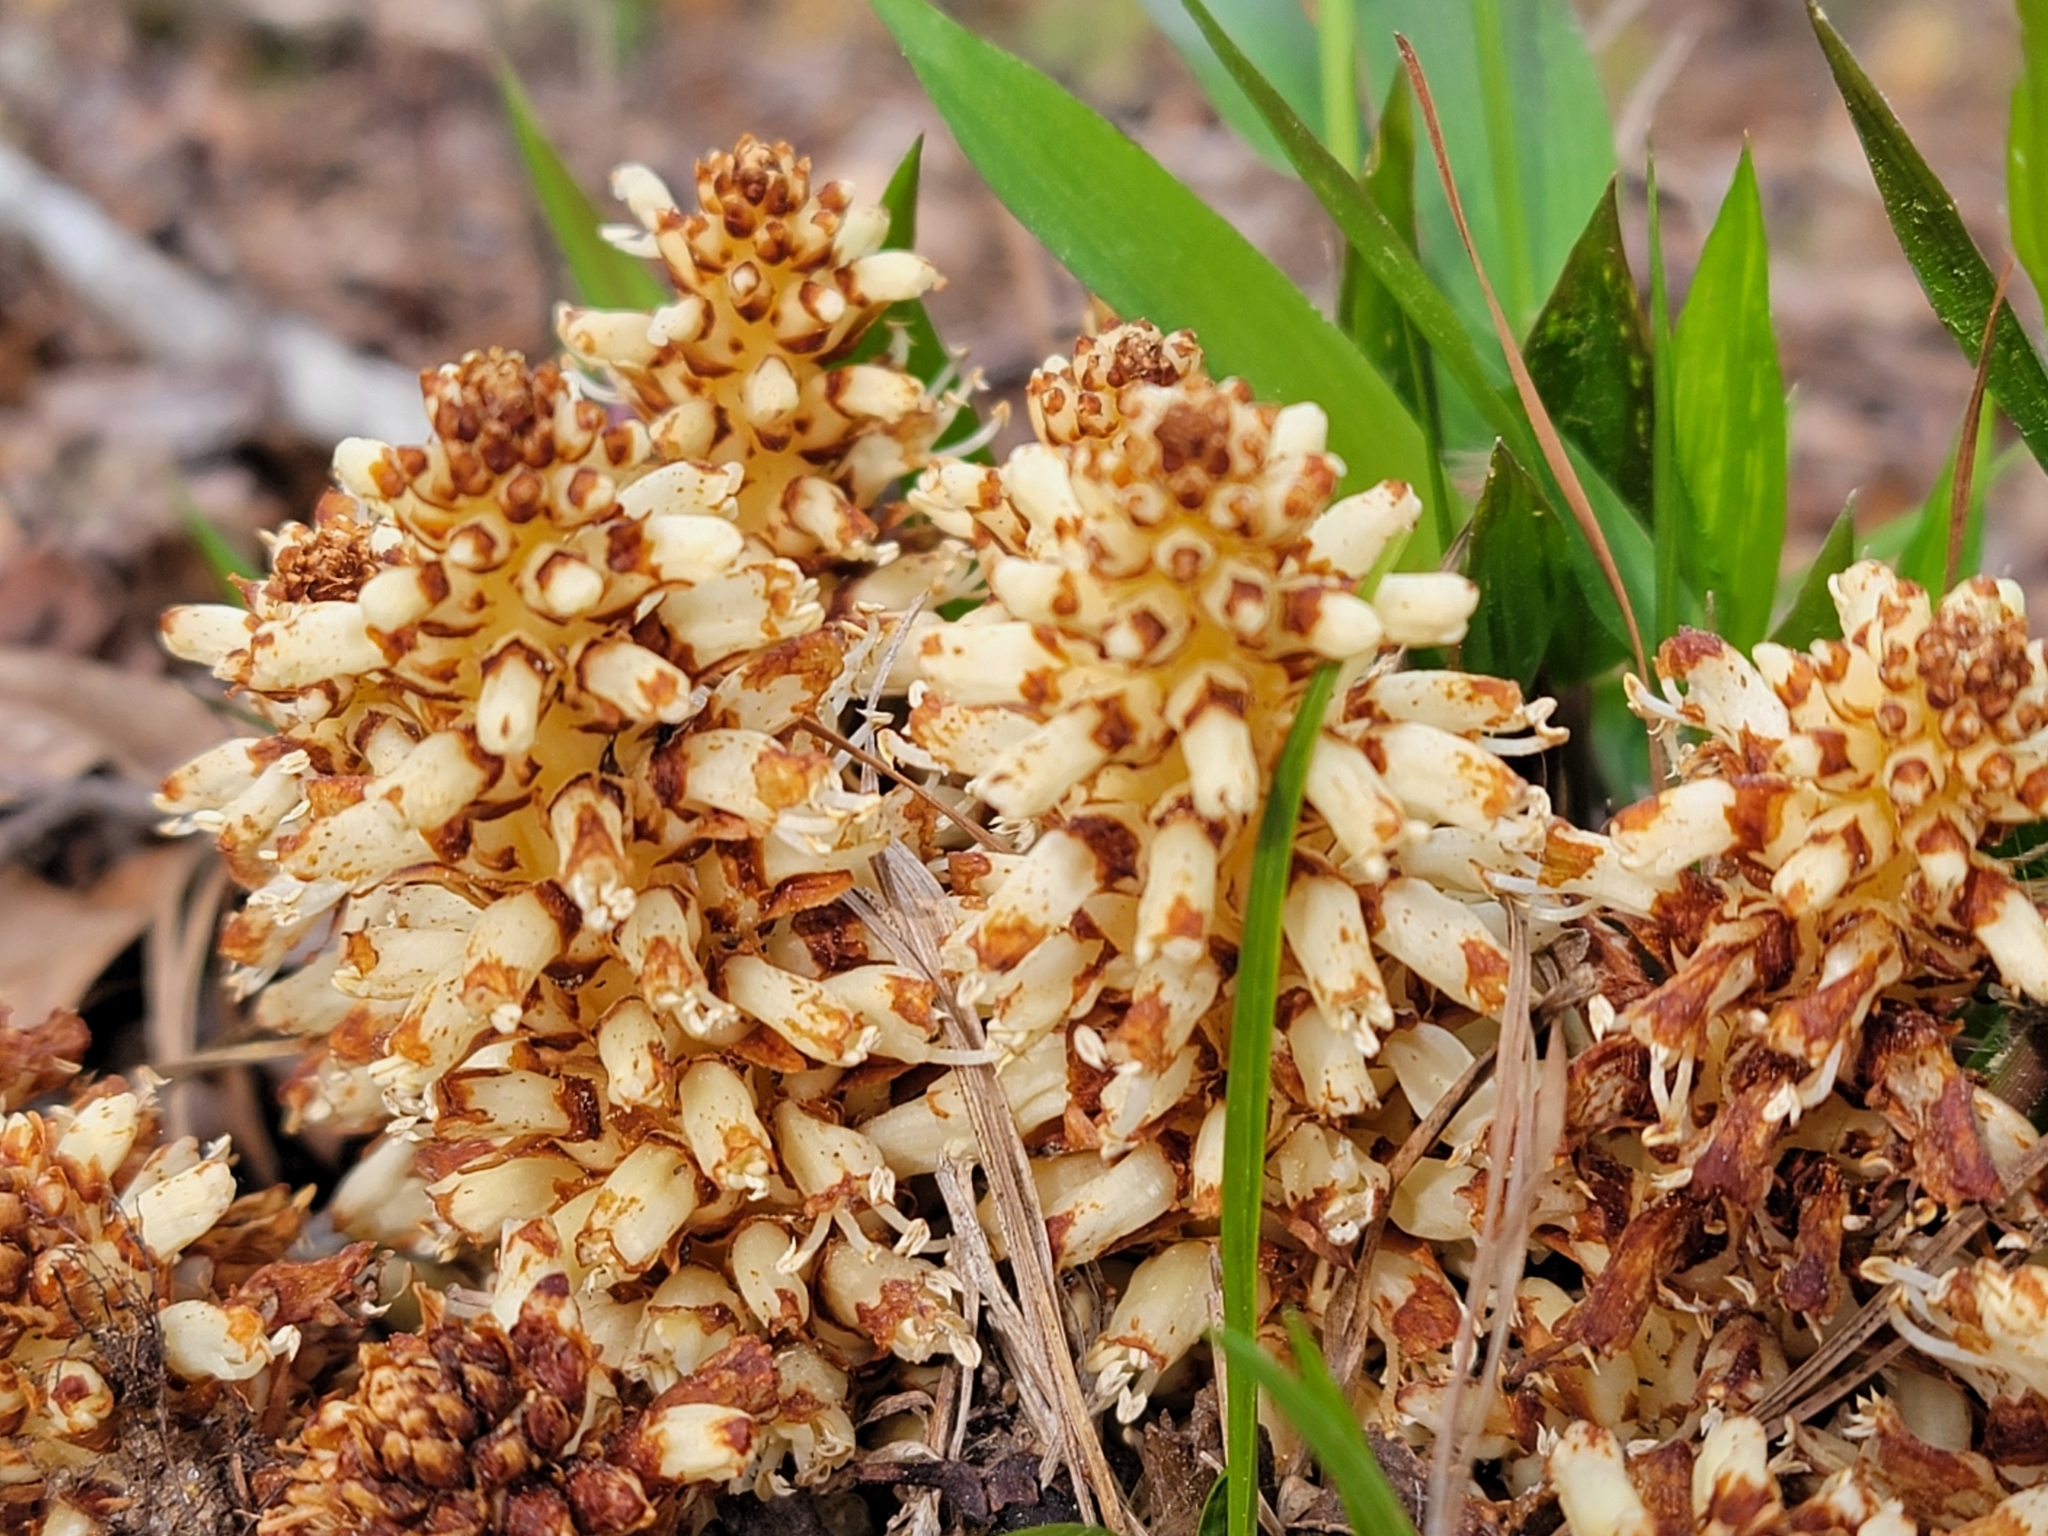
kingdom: Plantae
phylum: Tracheophyta
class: Magnoliopsida
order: Lamiales
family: Orobanchaceae
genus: Conopholis
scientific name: Conopholis americana
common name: American cancer-root
